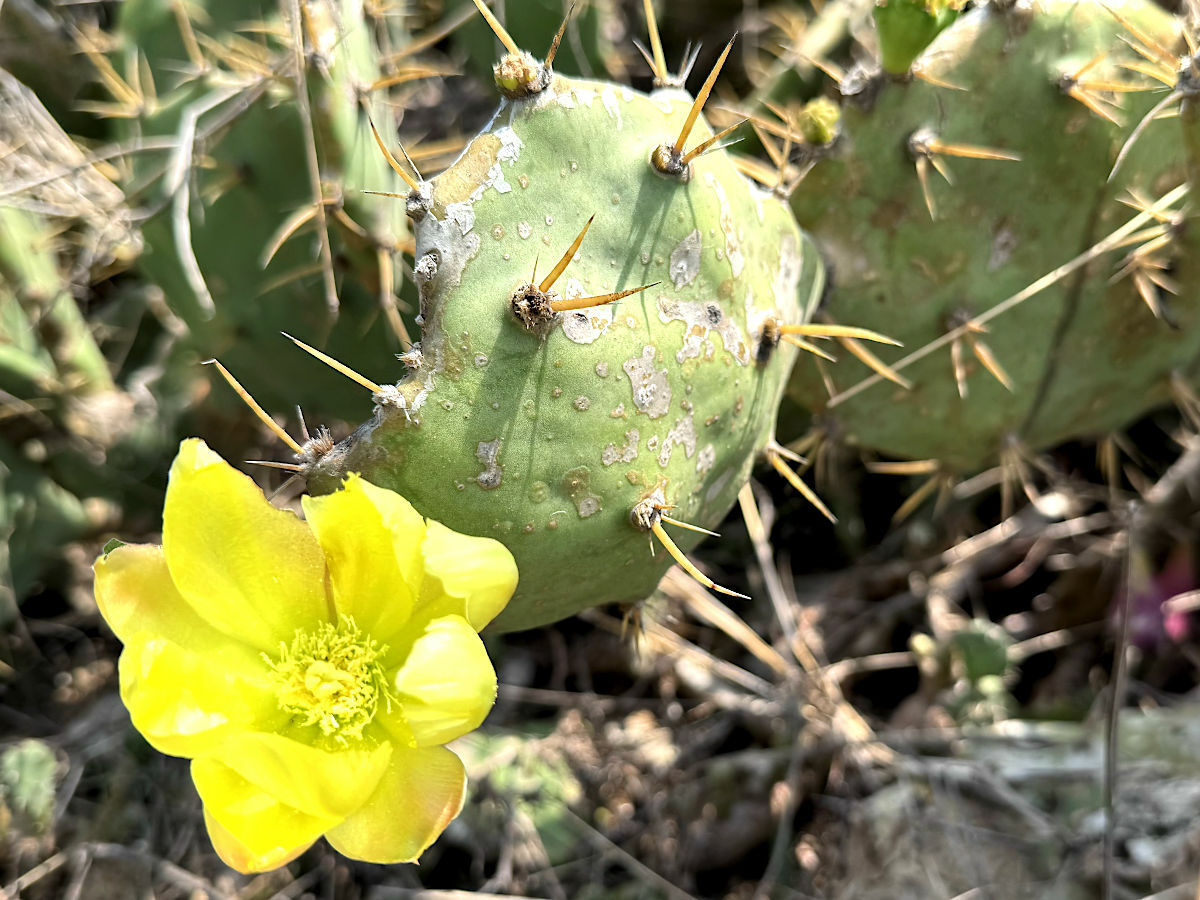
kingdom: Plantae
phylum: Tracheophyta
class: Magnoliopsida
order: Caryophyllales
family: Cactaceae
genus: Opuntia
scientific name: Opuntia dillenii
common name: Sour prickle
